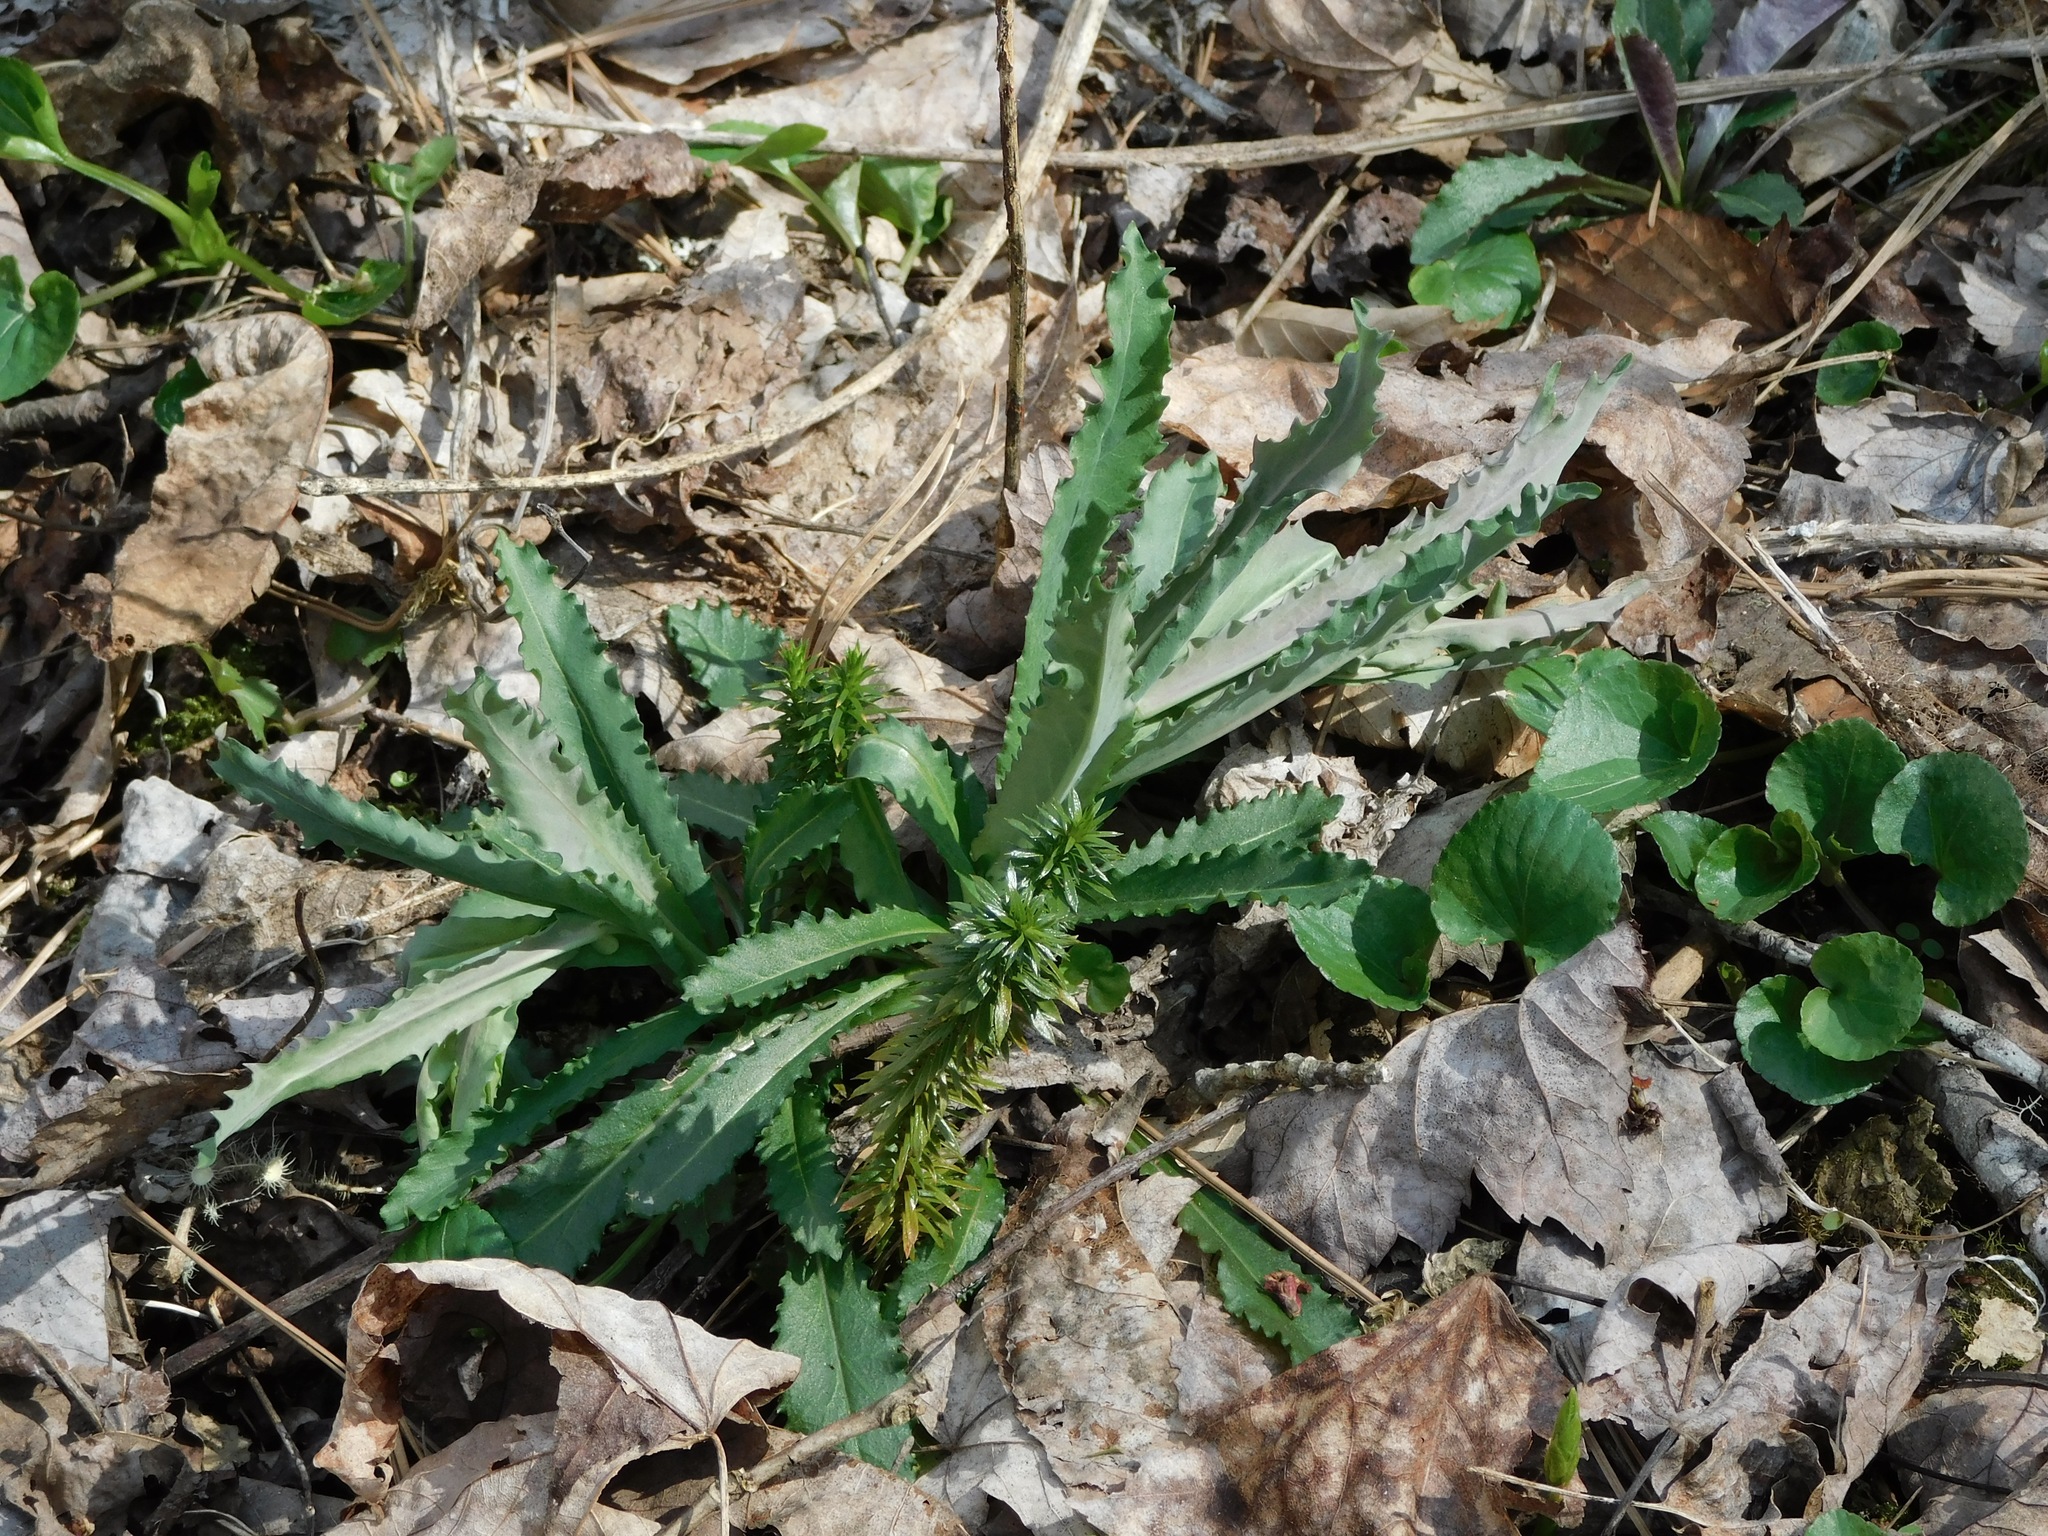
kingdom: Plantae
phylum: Tracheophyta
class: Magnoliopsida
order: Brassicales
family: Brassicaceae
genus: Borodinia
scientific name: Borodinia laevigata
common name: Smooth rockcress
